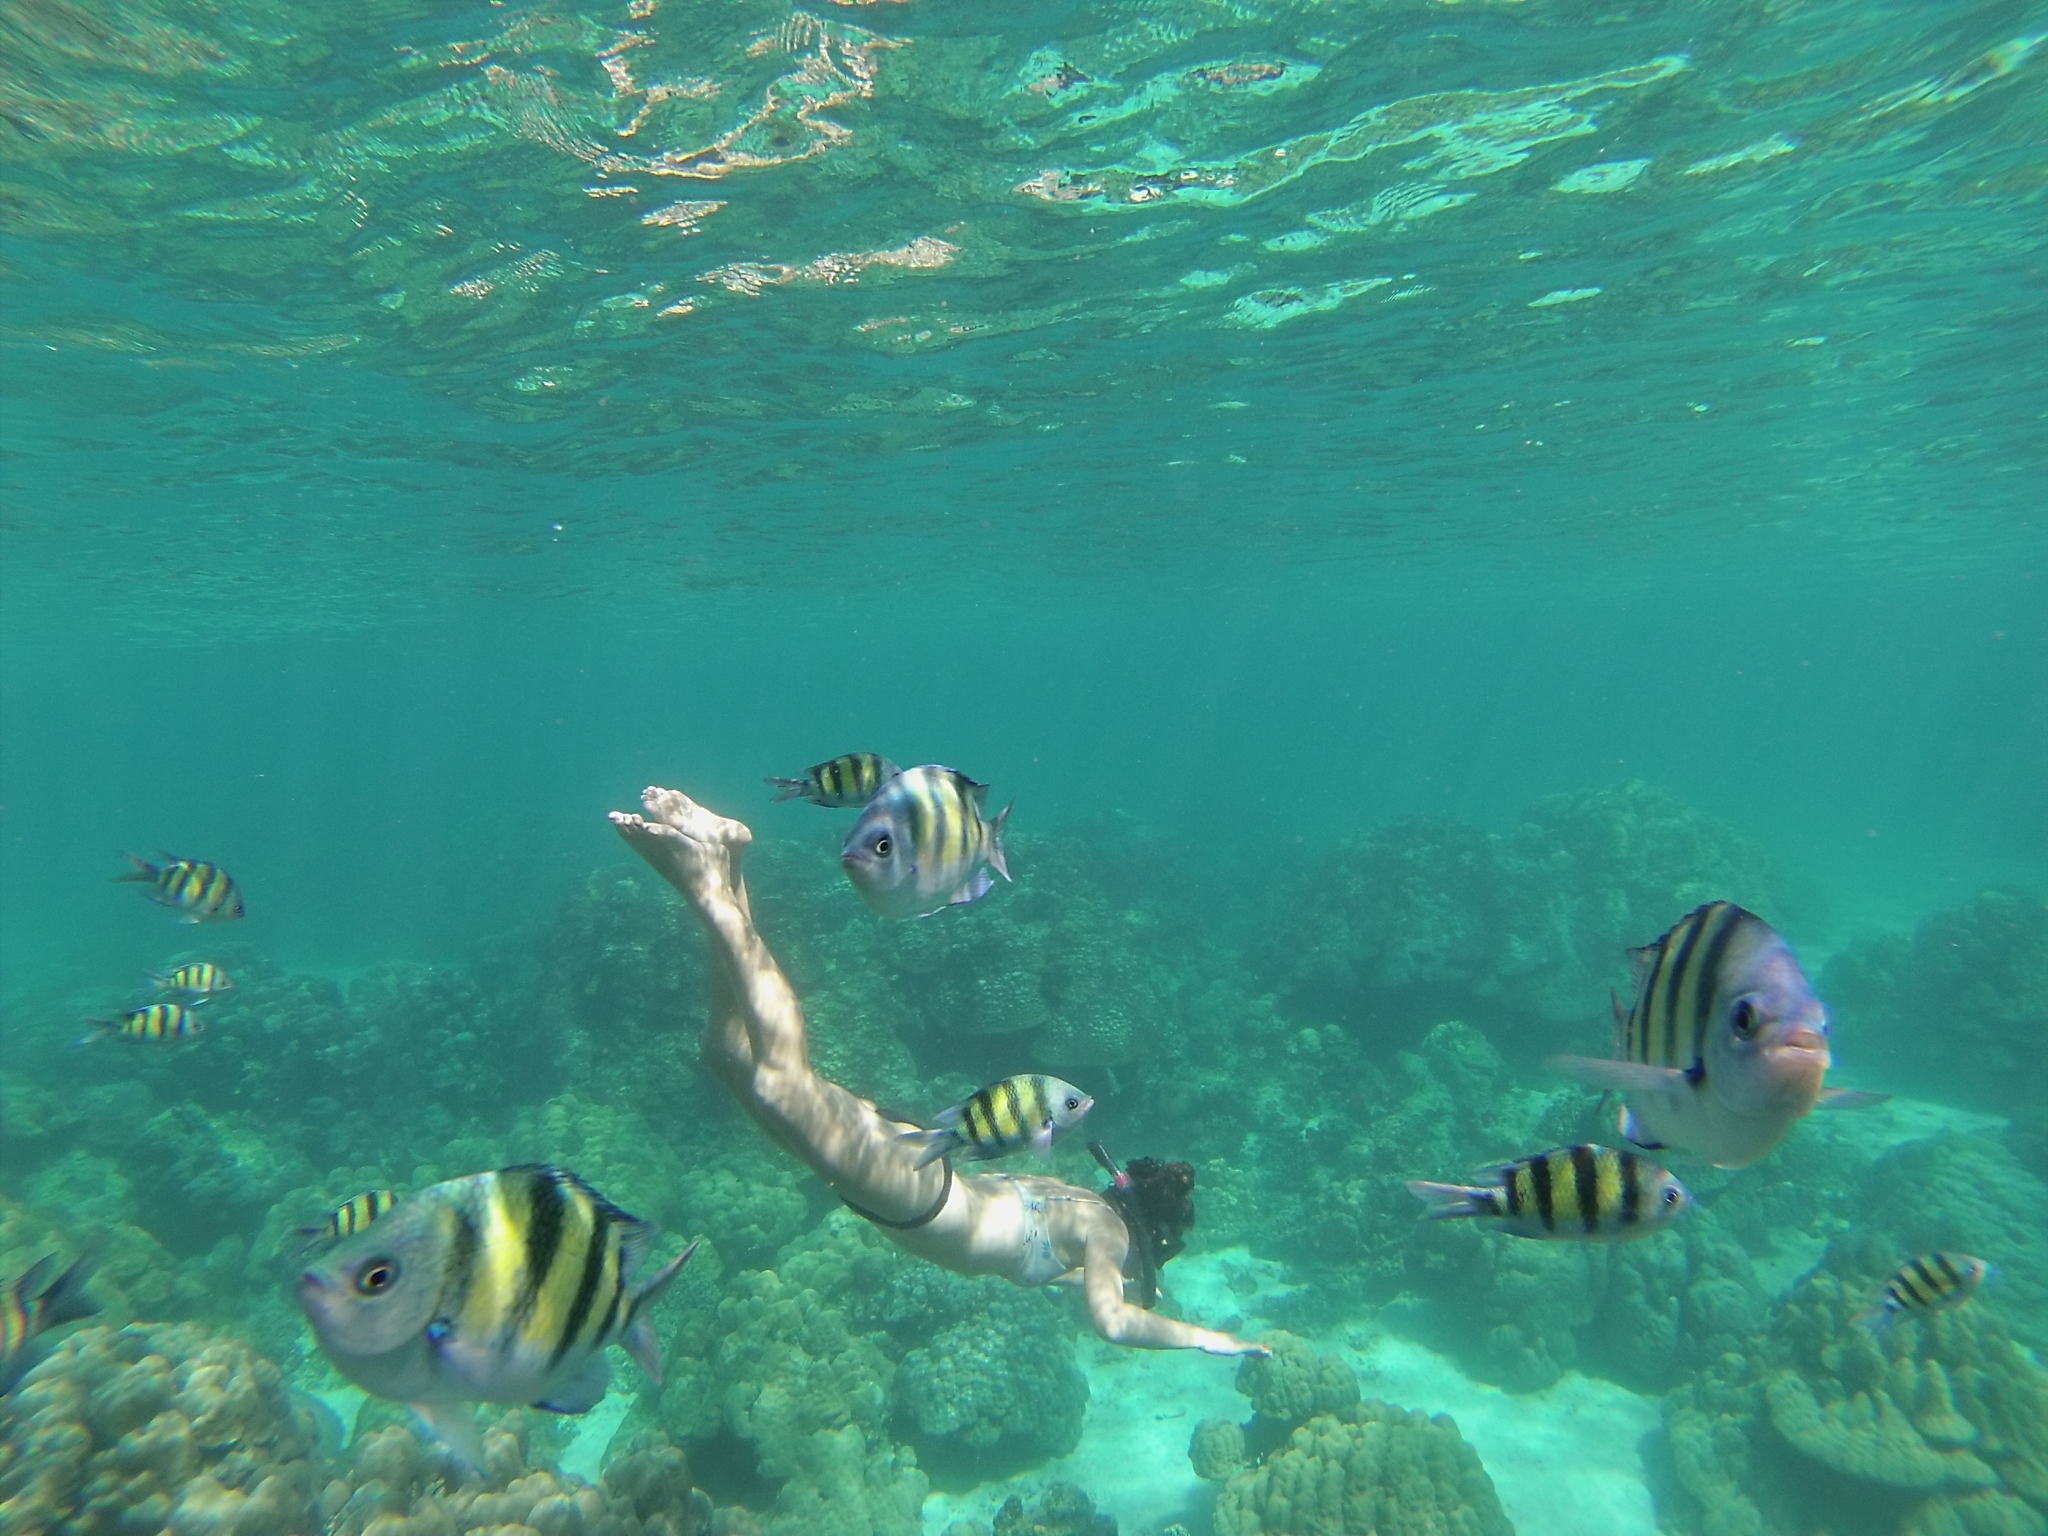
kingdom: Animalia
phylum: Chordata
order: Perciformes
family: Pomacentridae
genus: Abudefduf
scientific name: Abudefduf vaigiensis
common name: Indo-pacific sergeant
